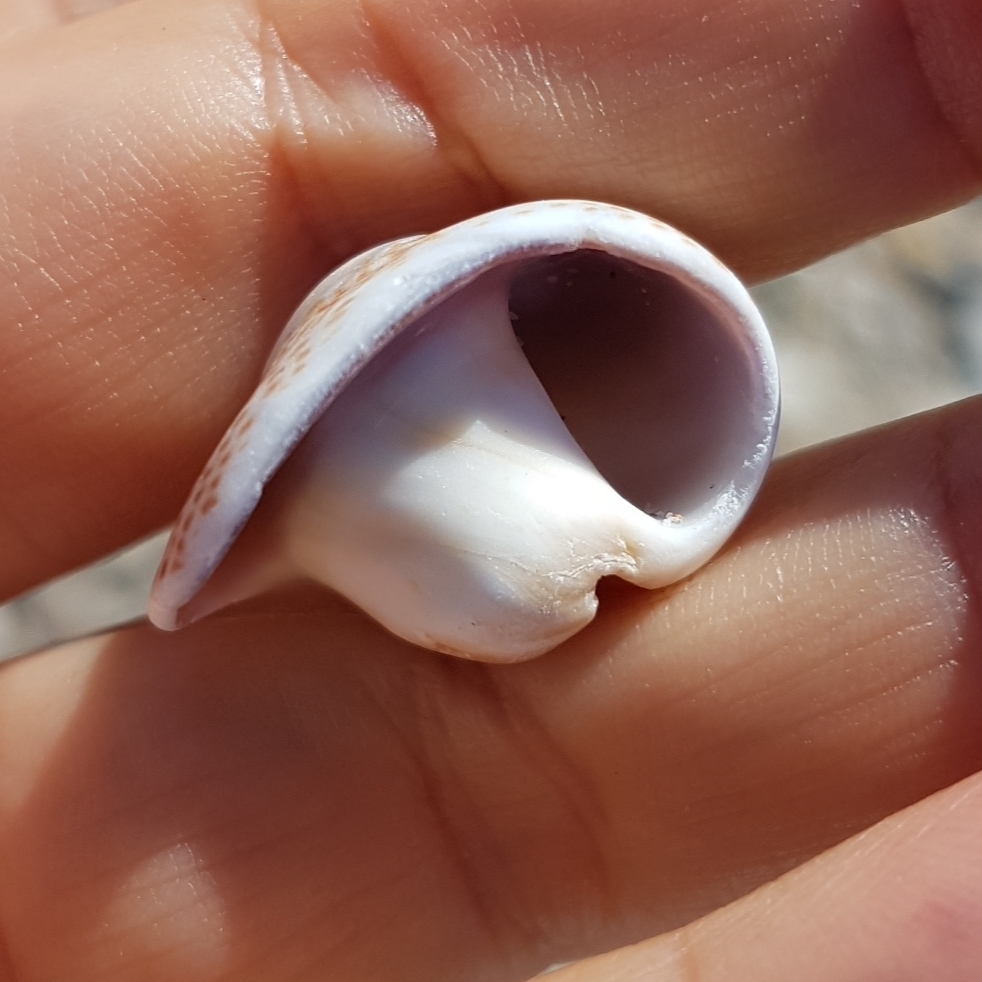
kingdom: Animalia
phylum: Mollusca
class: Gastropoda
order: Littorinimorpha
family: Naticidae
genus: Naticarius
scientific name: Naticarius stercusmuscarum
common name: Fly-speck moonsnail
